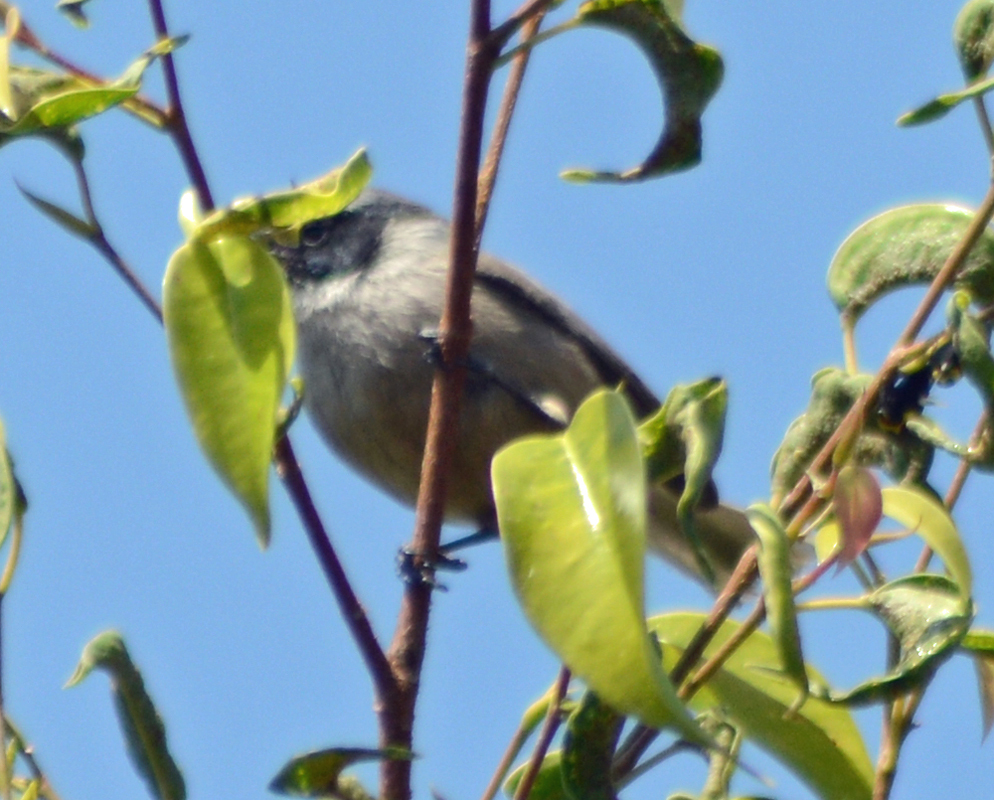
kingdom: Animalia
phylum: Chordata
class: Aves
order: Passeriformes
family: Aegithalidae
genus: Psaltriparus
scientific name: Psaltriparus minimus
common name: American bushtit
